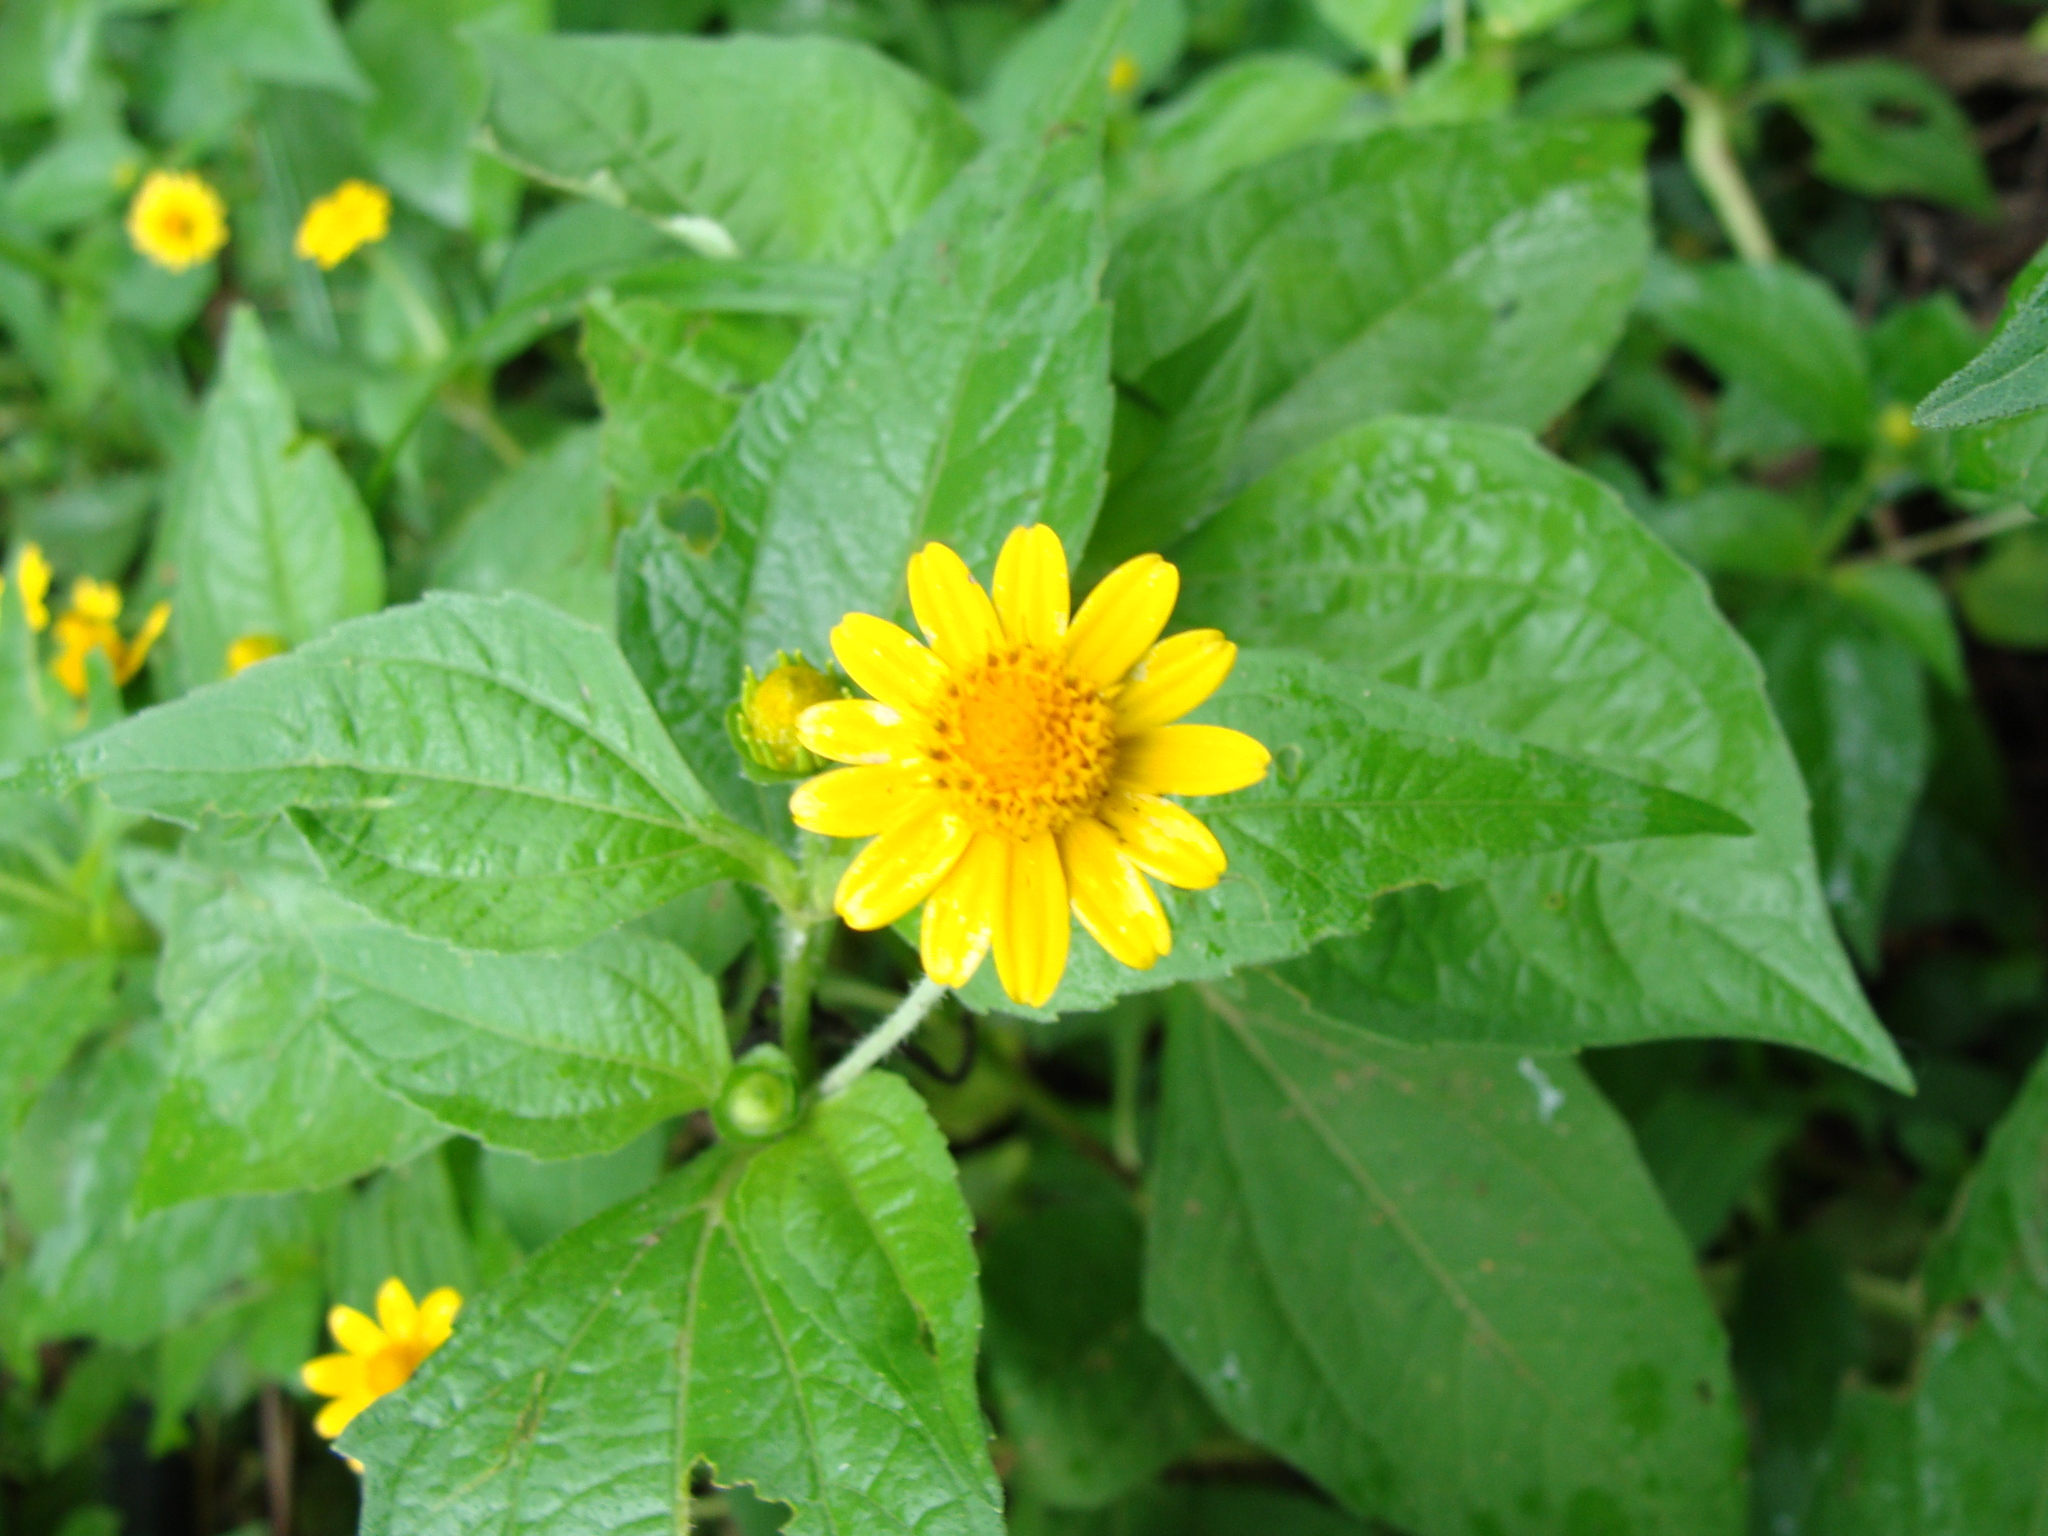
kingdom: Plantae
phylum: Tracheophyta
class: Magnoliopsida
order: Asterales
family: Asteraceae
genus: Melampodium
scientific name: Melampodium divaricatum
